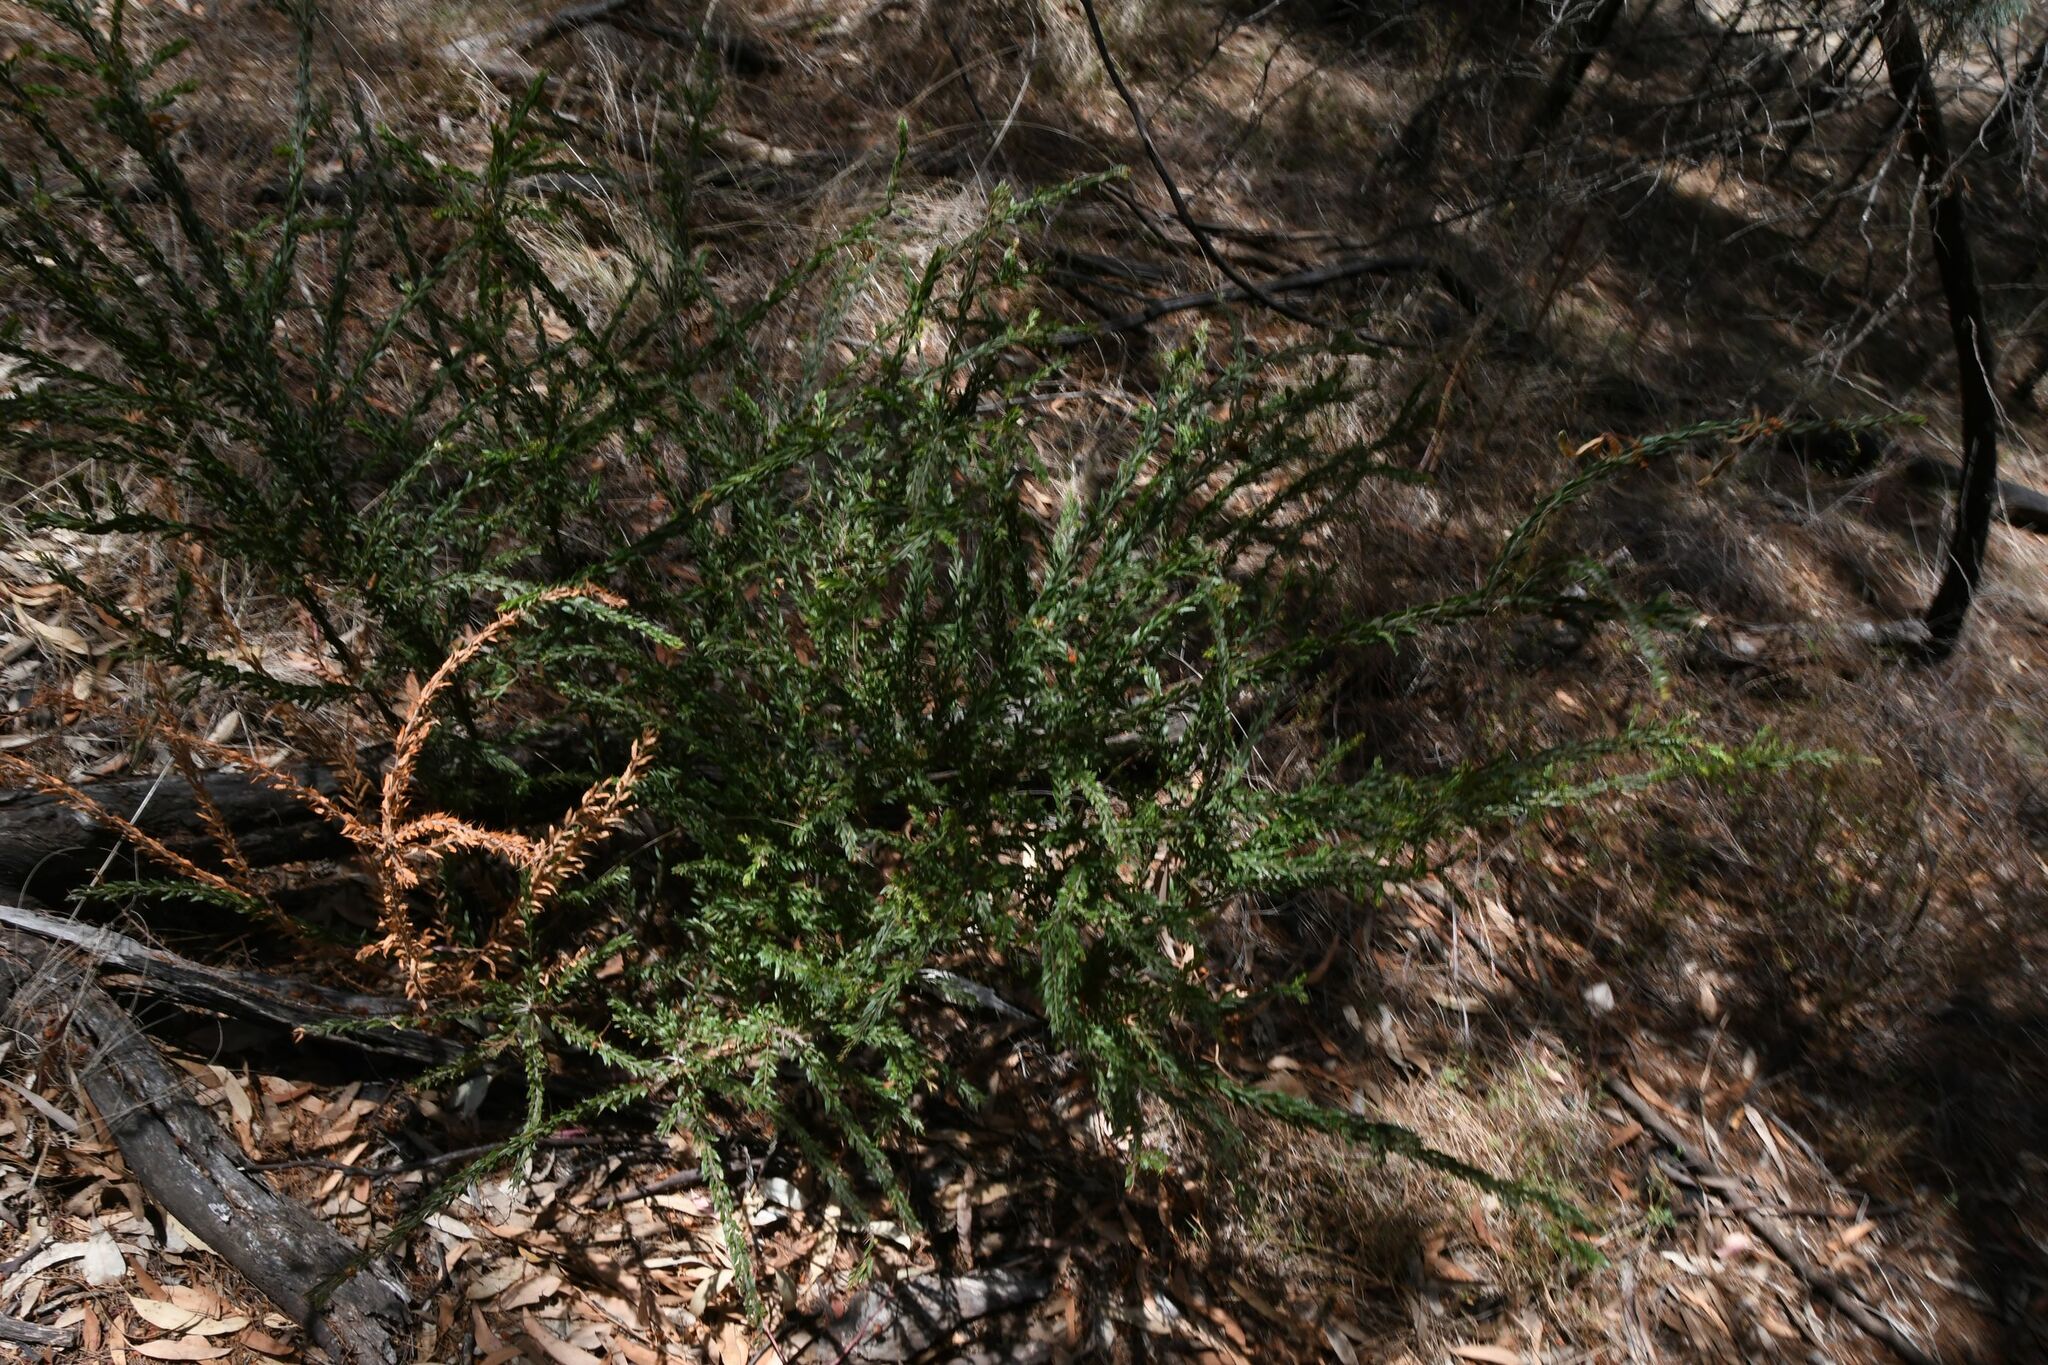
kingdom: Plantae
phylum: Tracheophyta
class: Magnoliopsida
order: Fabales
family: Fabaceae
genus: Acacia
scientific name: Acacia paradoxa
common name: Paradox acacia
